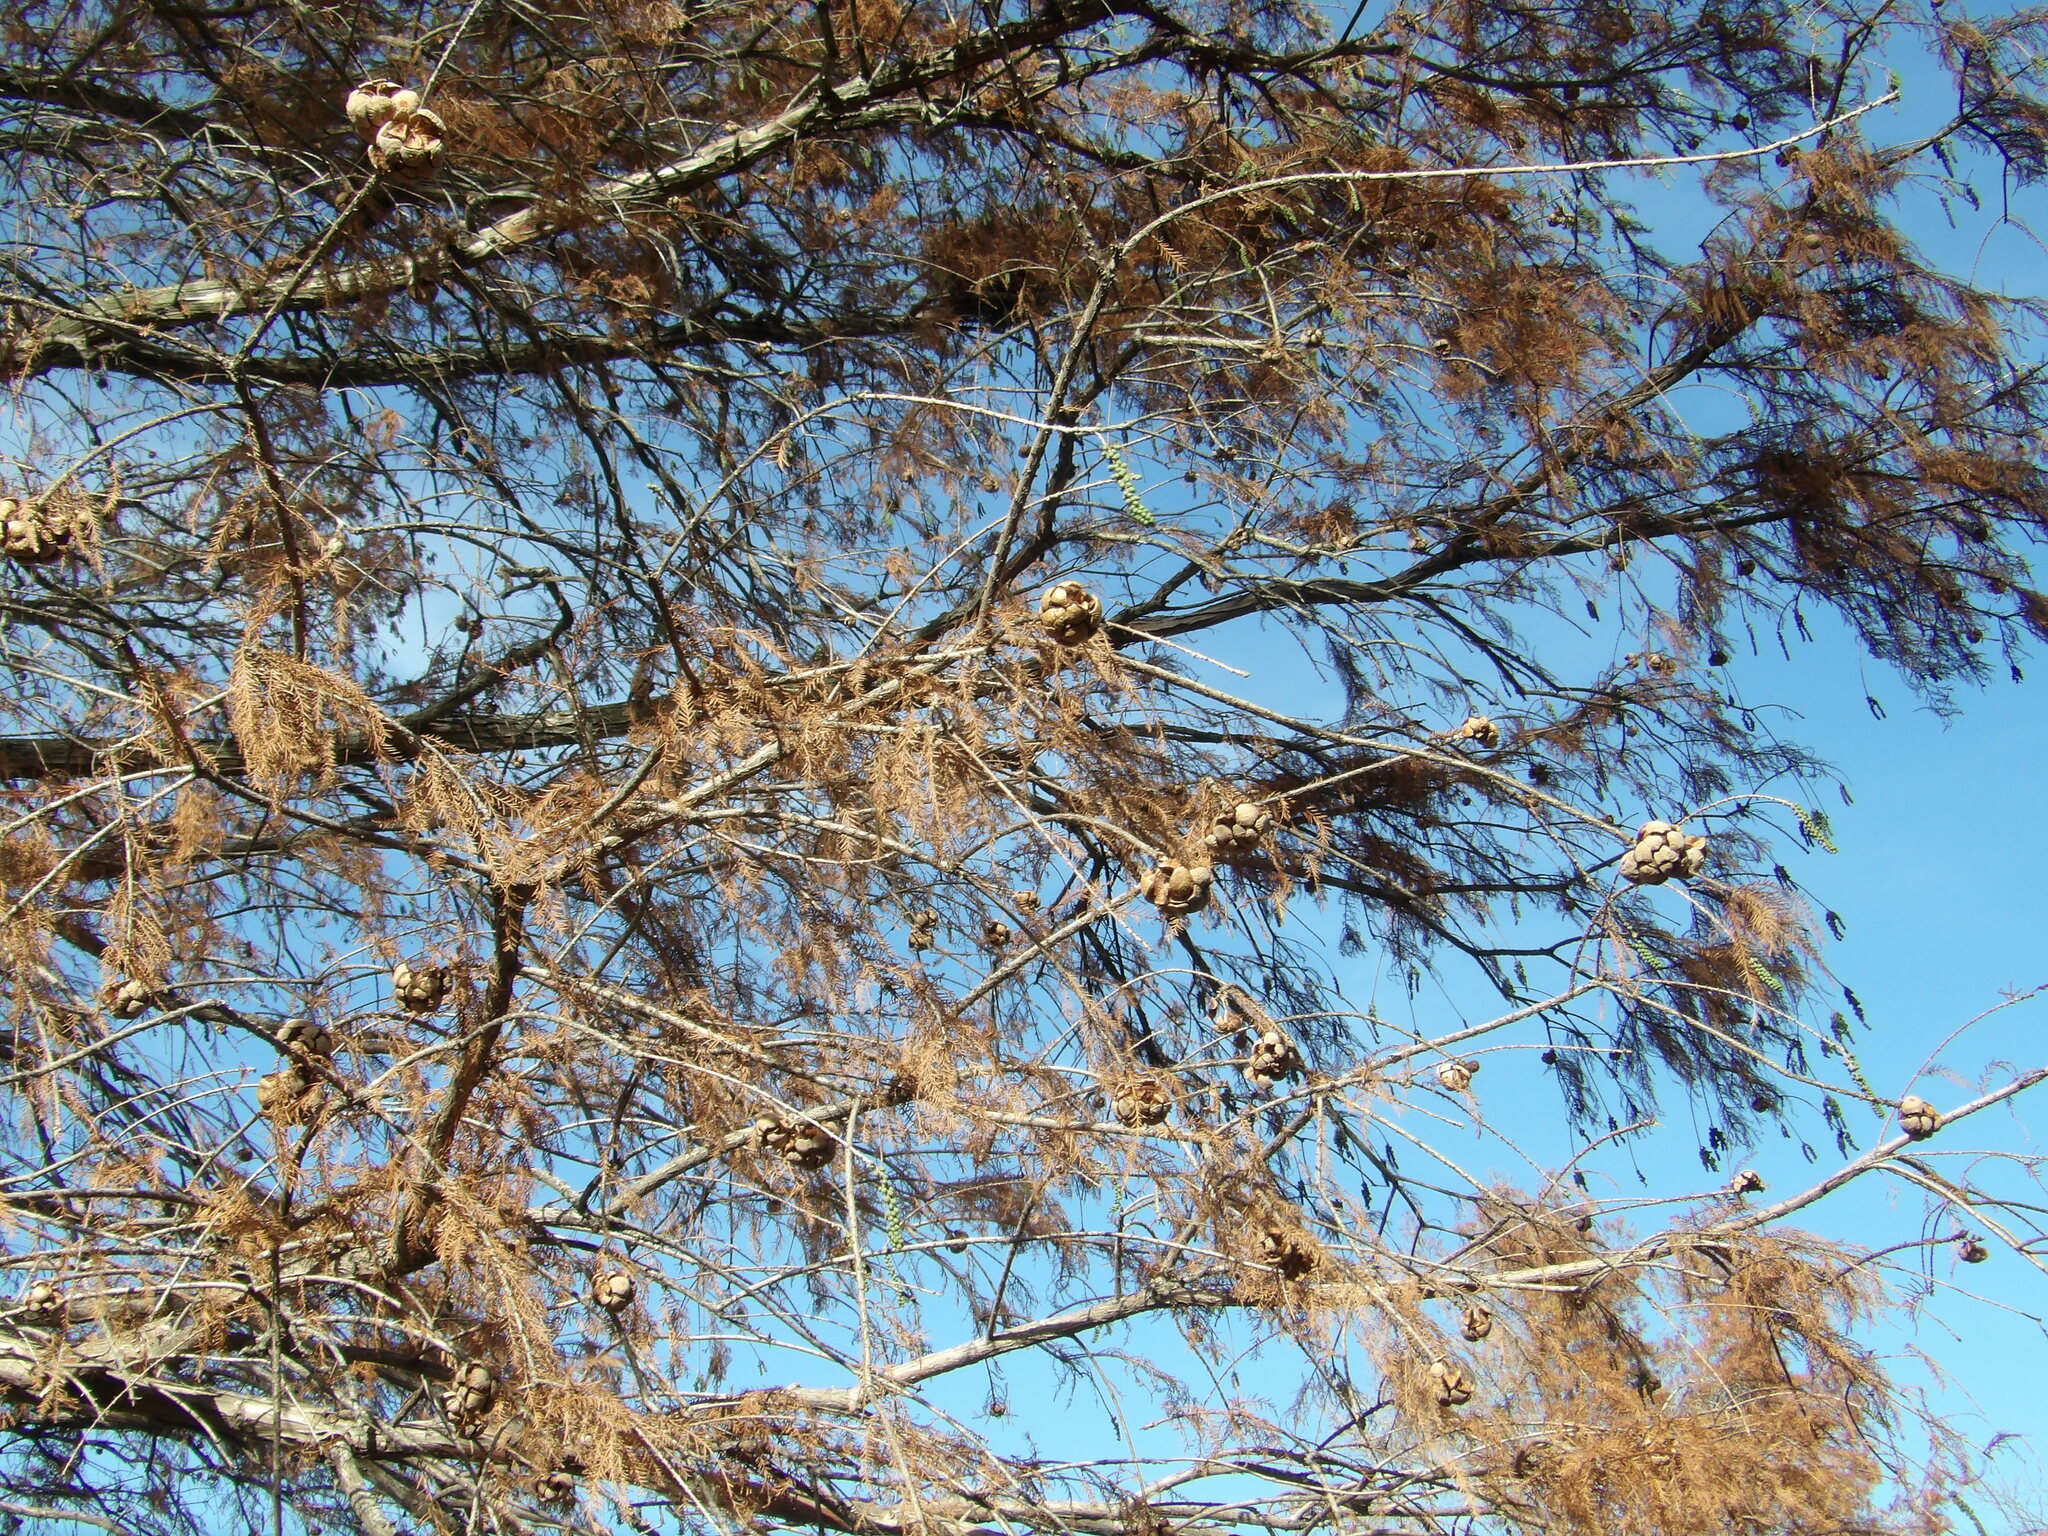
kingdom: Plantae
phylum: Tracheophyta
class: Pinopsida
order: Pinales
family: Cupressaceae
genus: Taxodium
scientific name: Taxodium distichum
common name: Bald cypress
